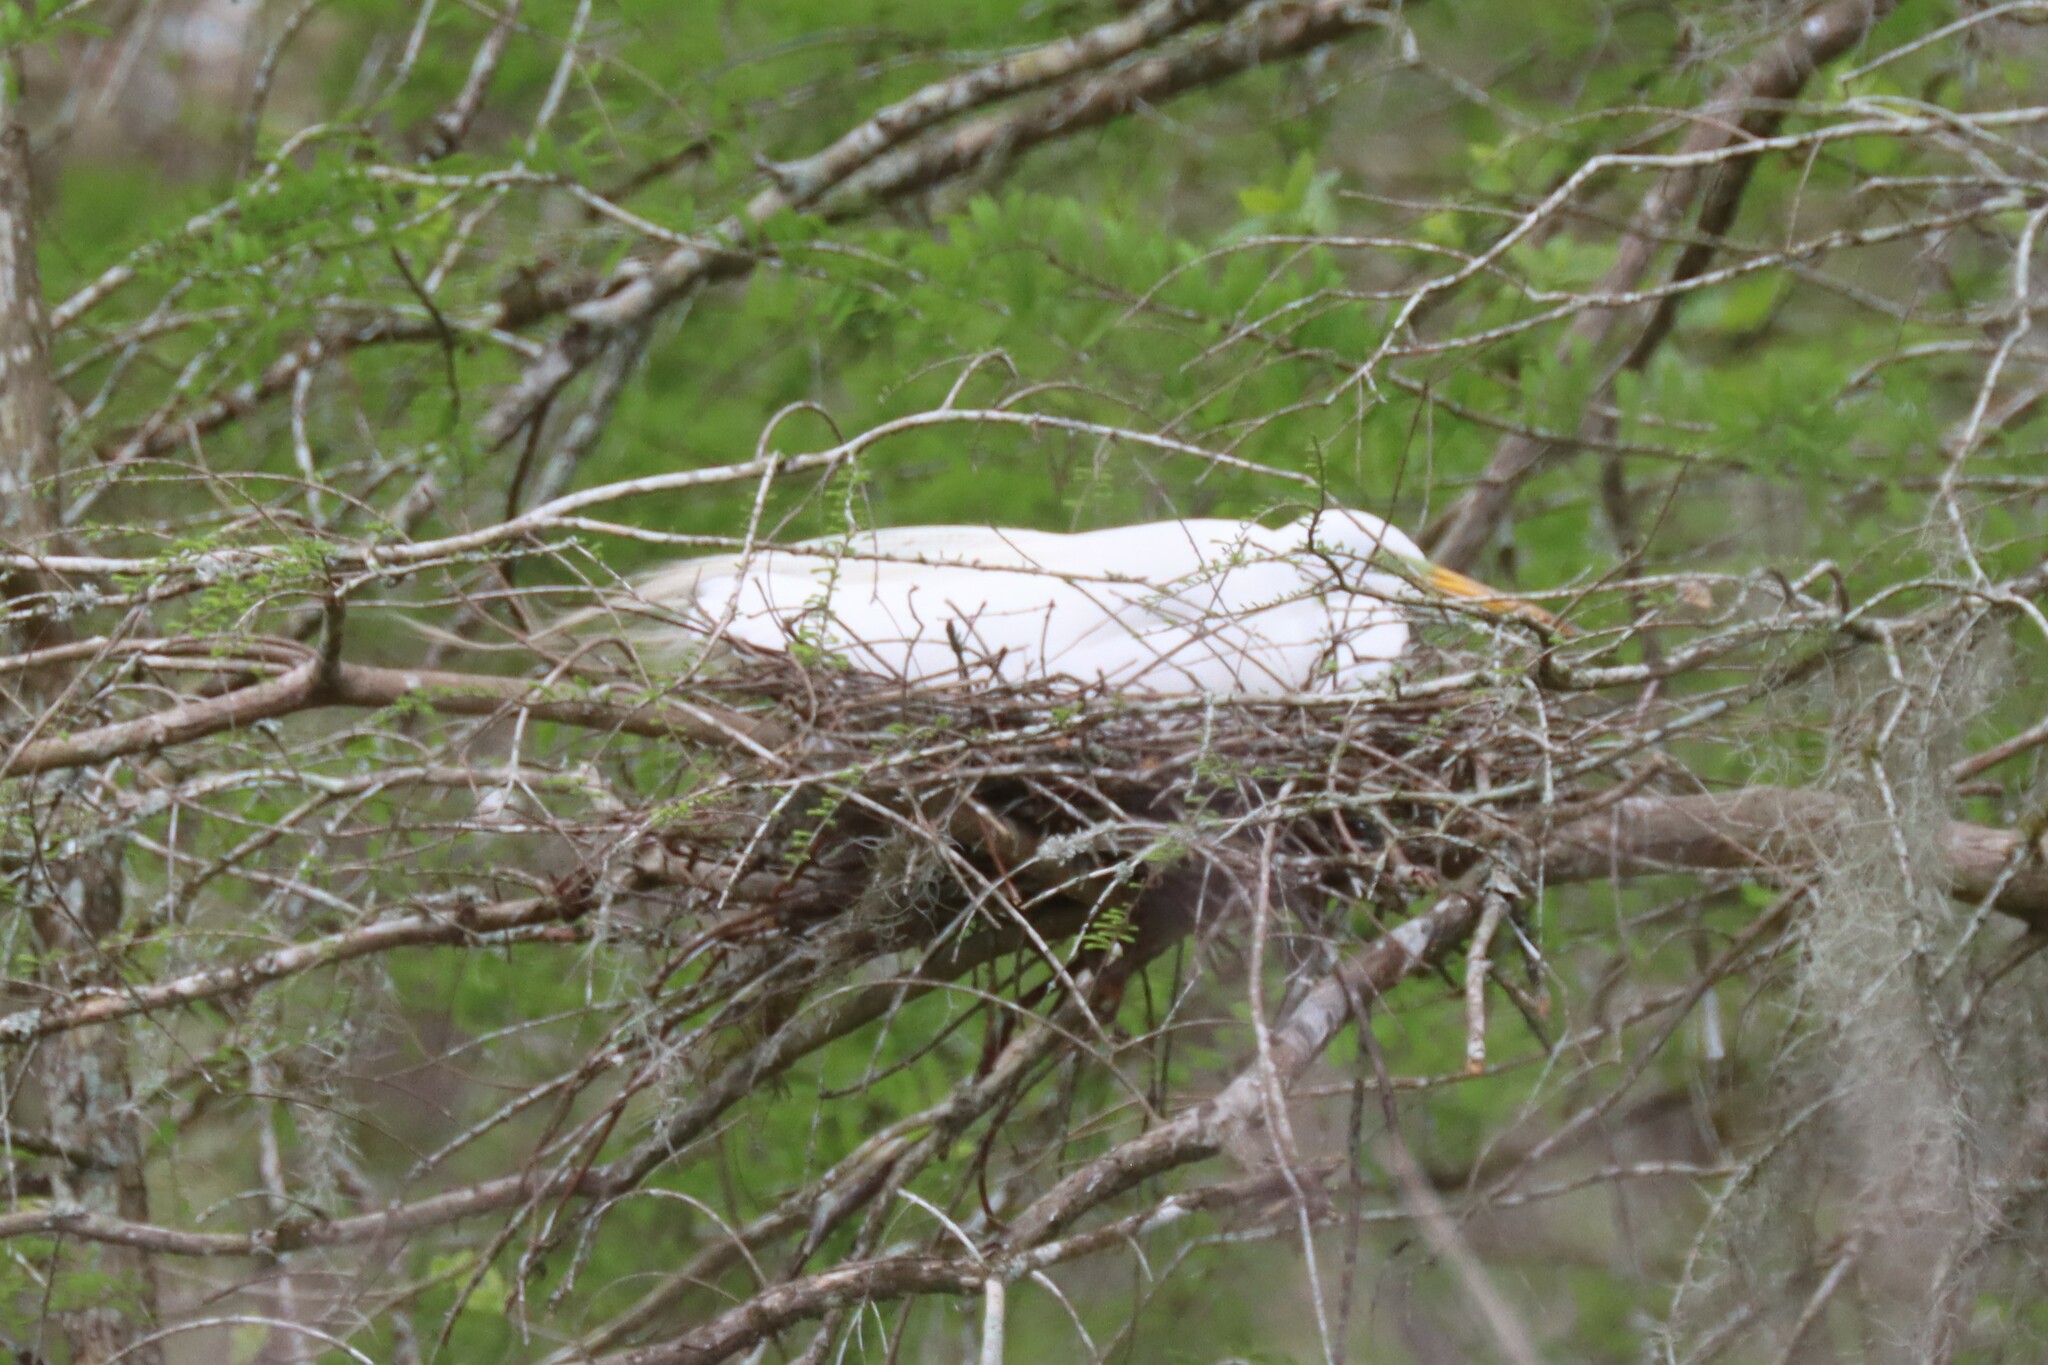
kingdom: Animalia
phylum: Chordata
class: Aves
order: Pelecaniformes
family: Ardeidae
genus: Ardea
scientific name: Ardea alba
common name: Great egret
